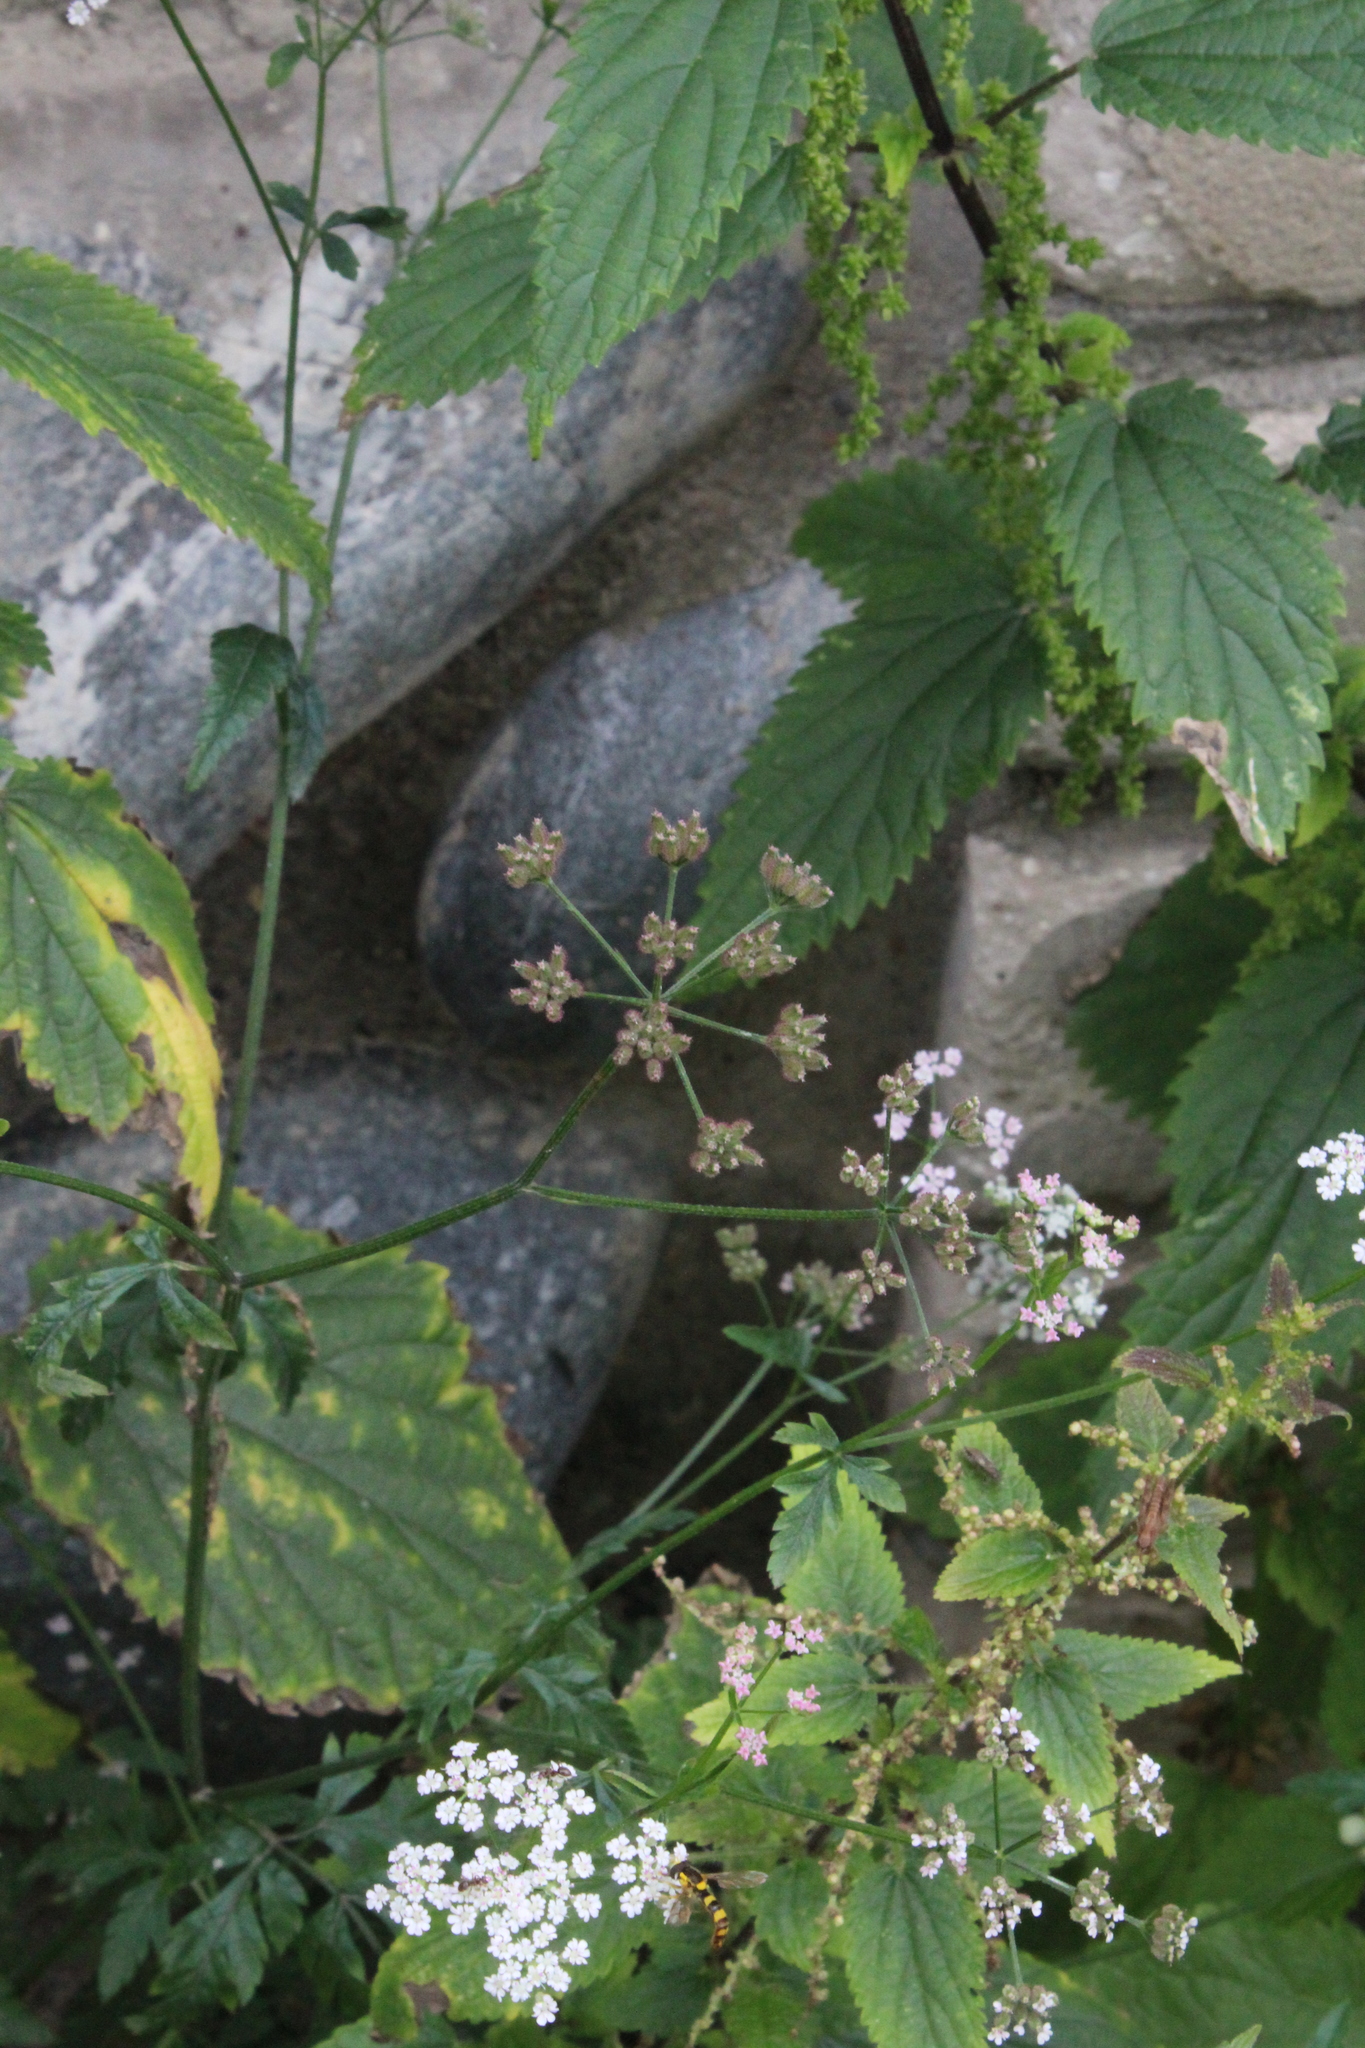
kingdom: Plantae
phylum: Tracheophyta
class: Magnoliopsida
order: Apiales
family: Apiaceae
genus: Torilis
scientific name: Torilis japonica
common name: Upright hedge-parsley
